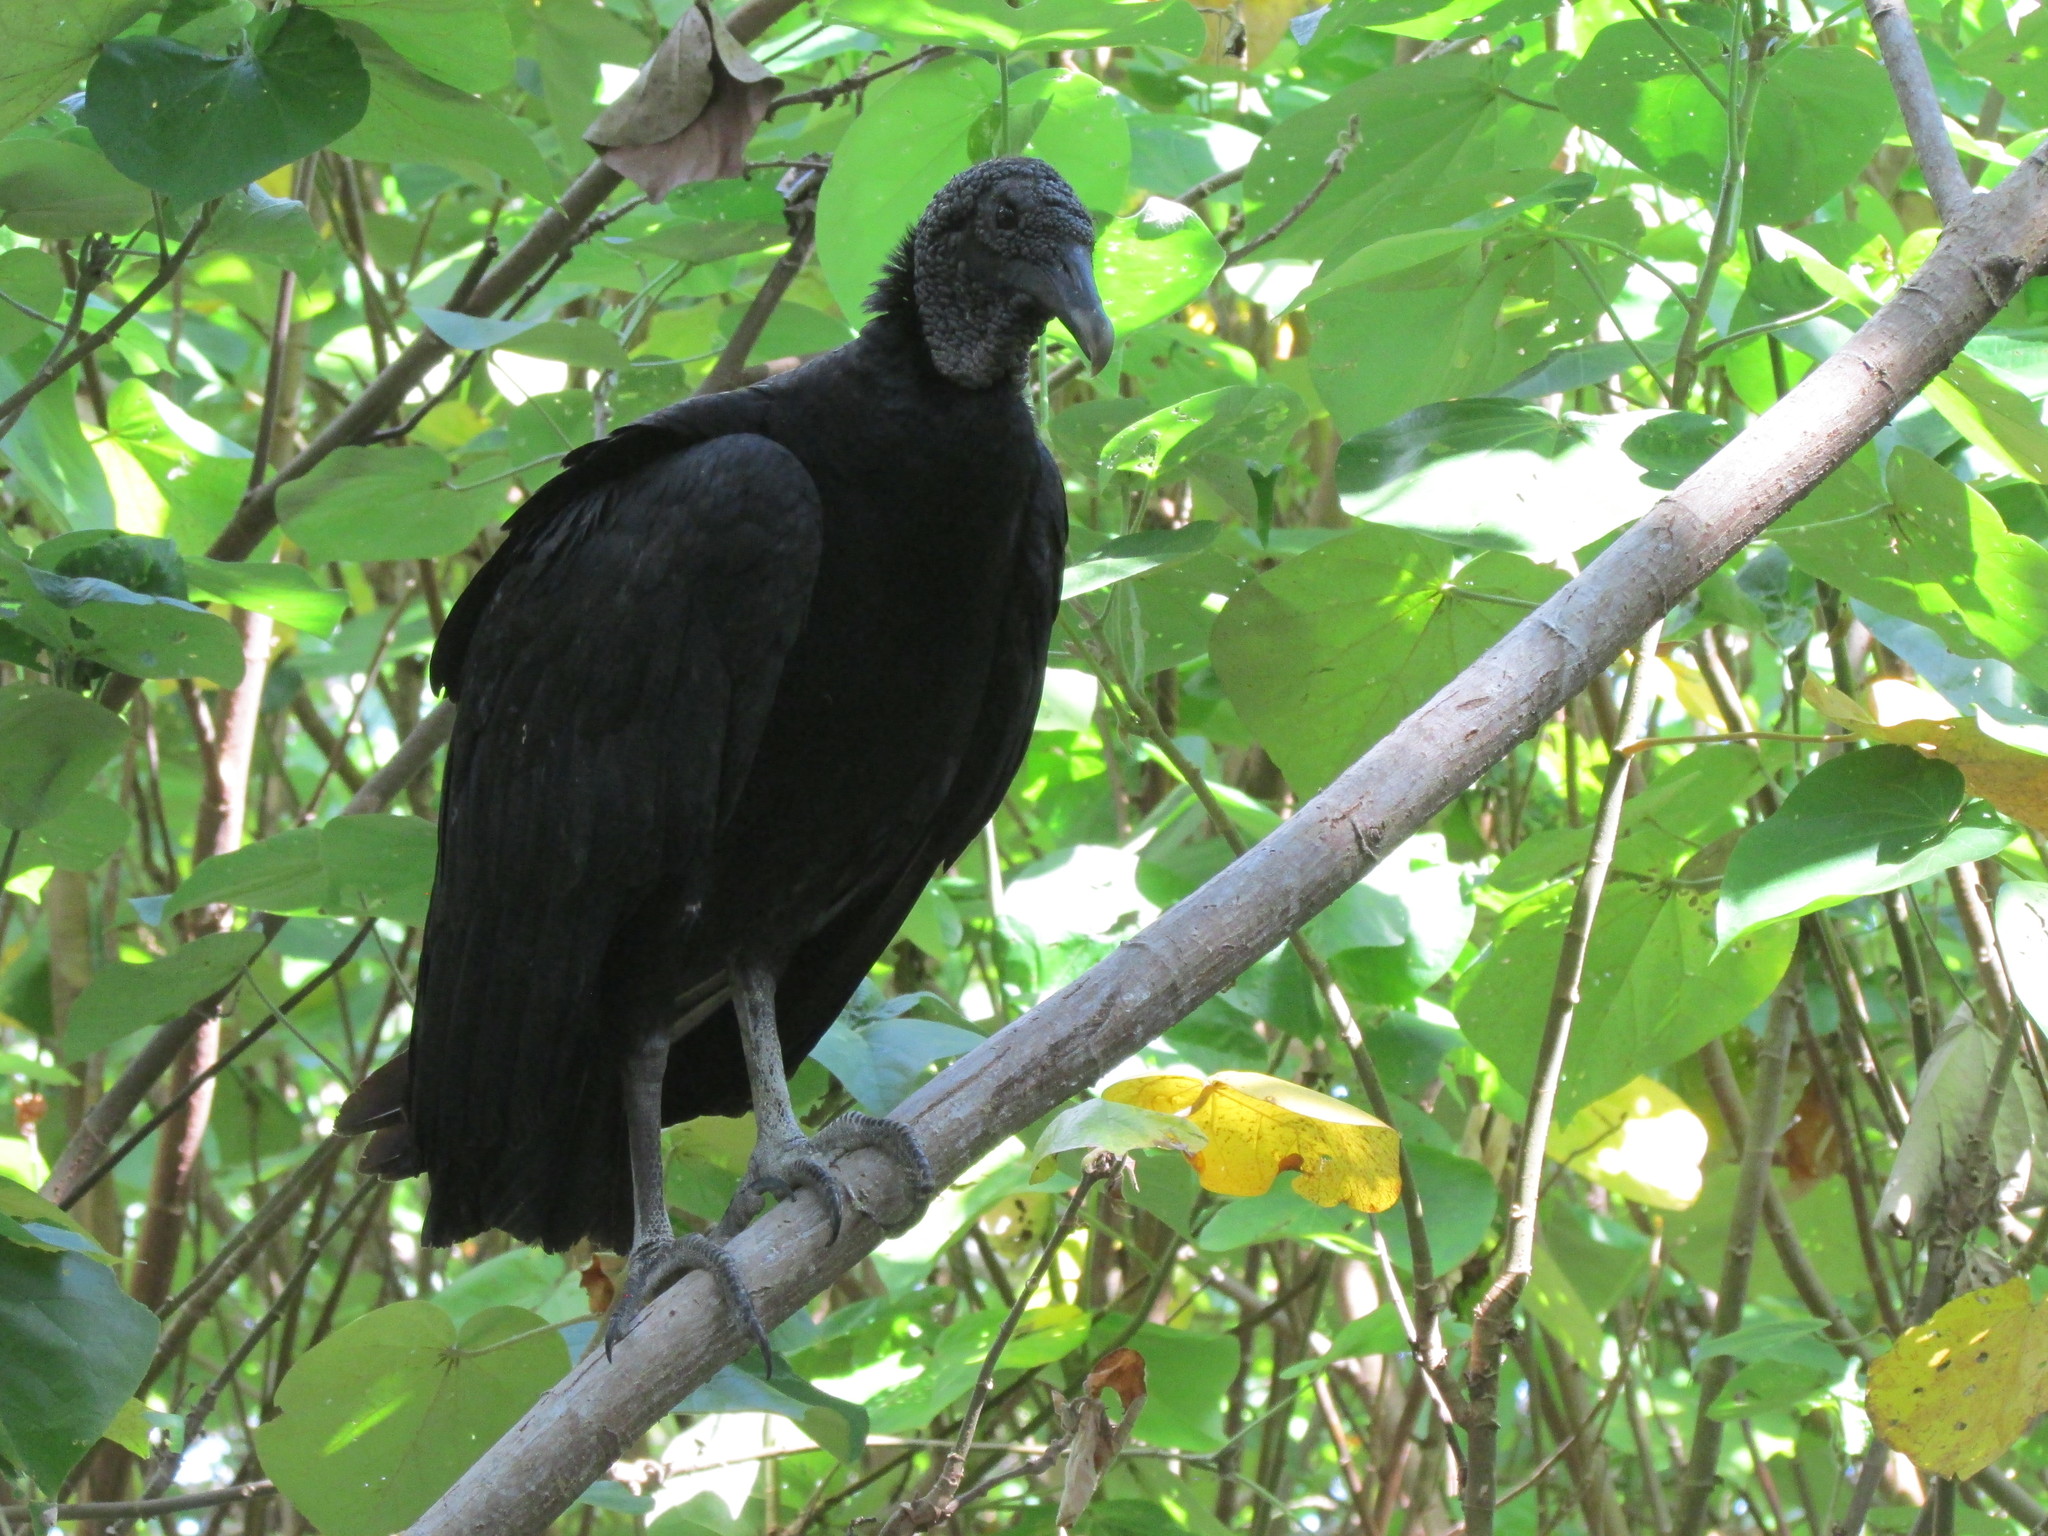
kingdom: Animalia
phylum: Chordata
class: Aves
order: Accipitriformes
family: Cathartidae
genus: Coragyps
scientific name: Coragyps atratus
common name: Black vulture
